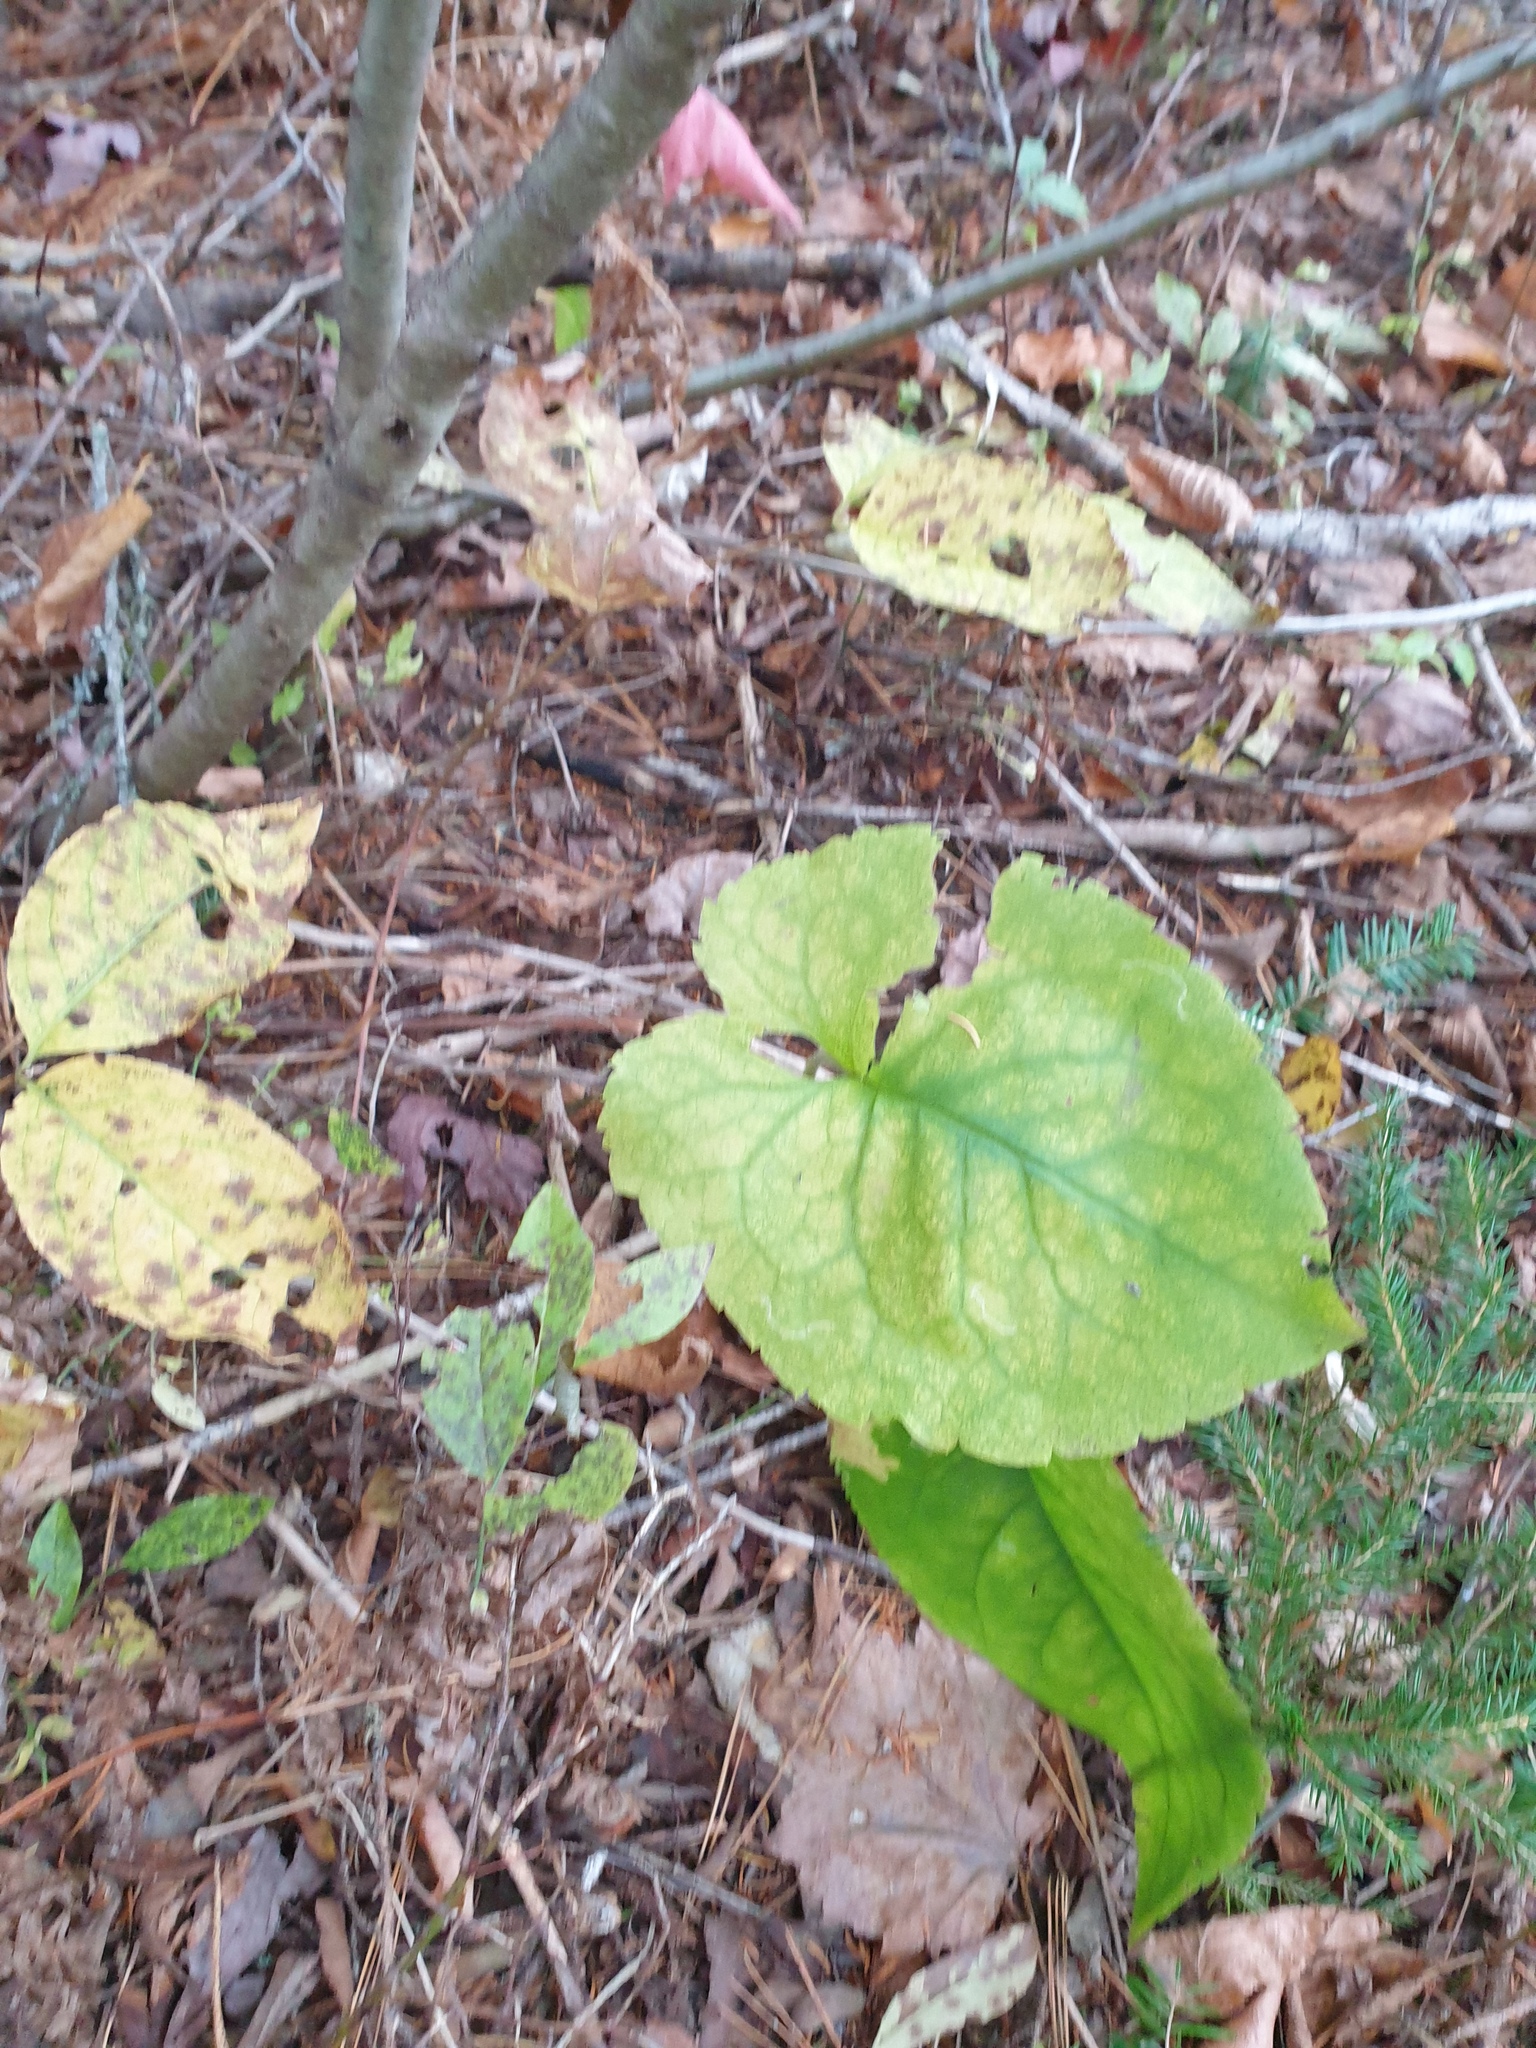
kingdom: Plantae
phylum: Tracheophyta
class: Magnoliopsida
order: Asterales
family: Asteraceae
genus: Eurybia
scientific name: Eurybia macrophylla
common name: Big-leaved aster
